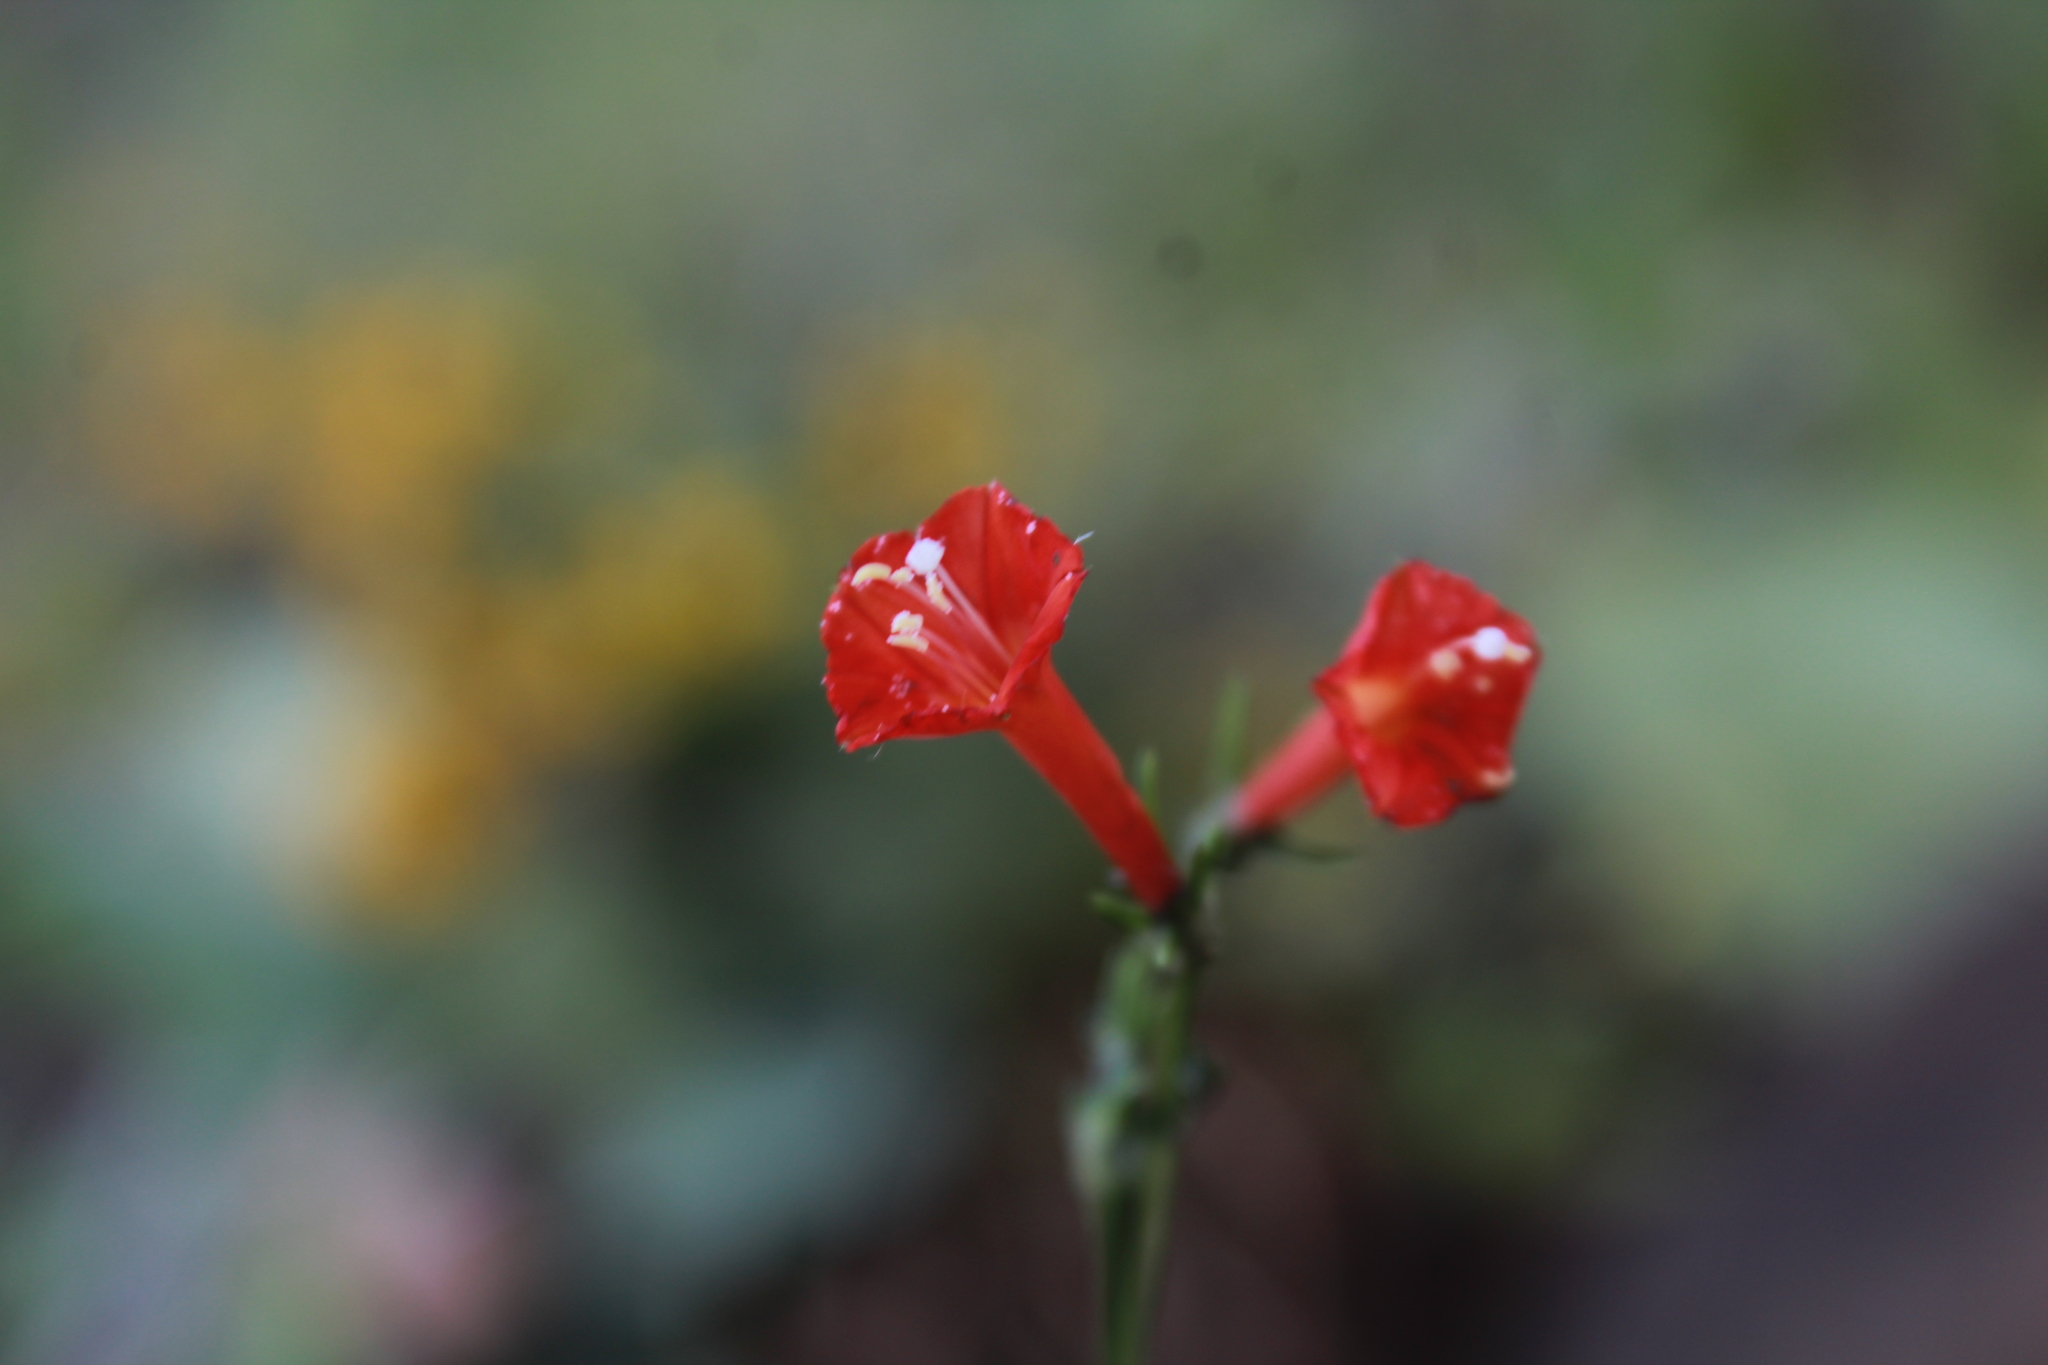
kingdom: Plantae
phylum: Tracheophyta
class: Magnoliopsida
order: Solanales
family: Convolvulaceae
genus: Ipomoea
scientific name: Ipomoea cholulensis
